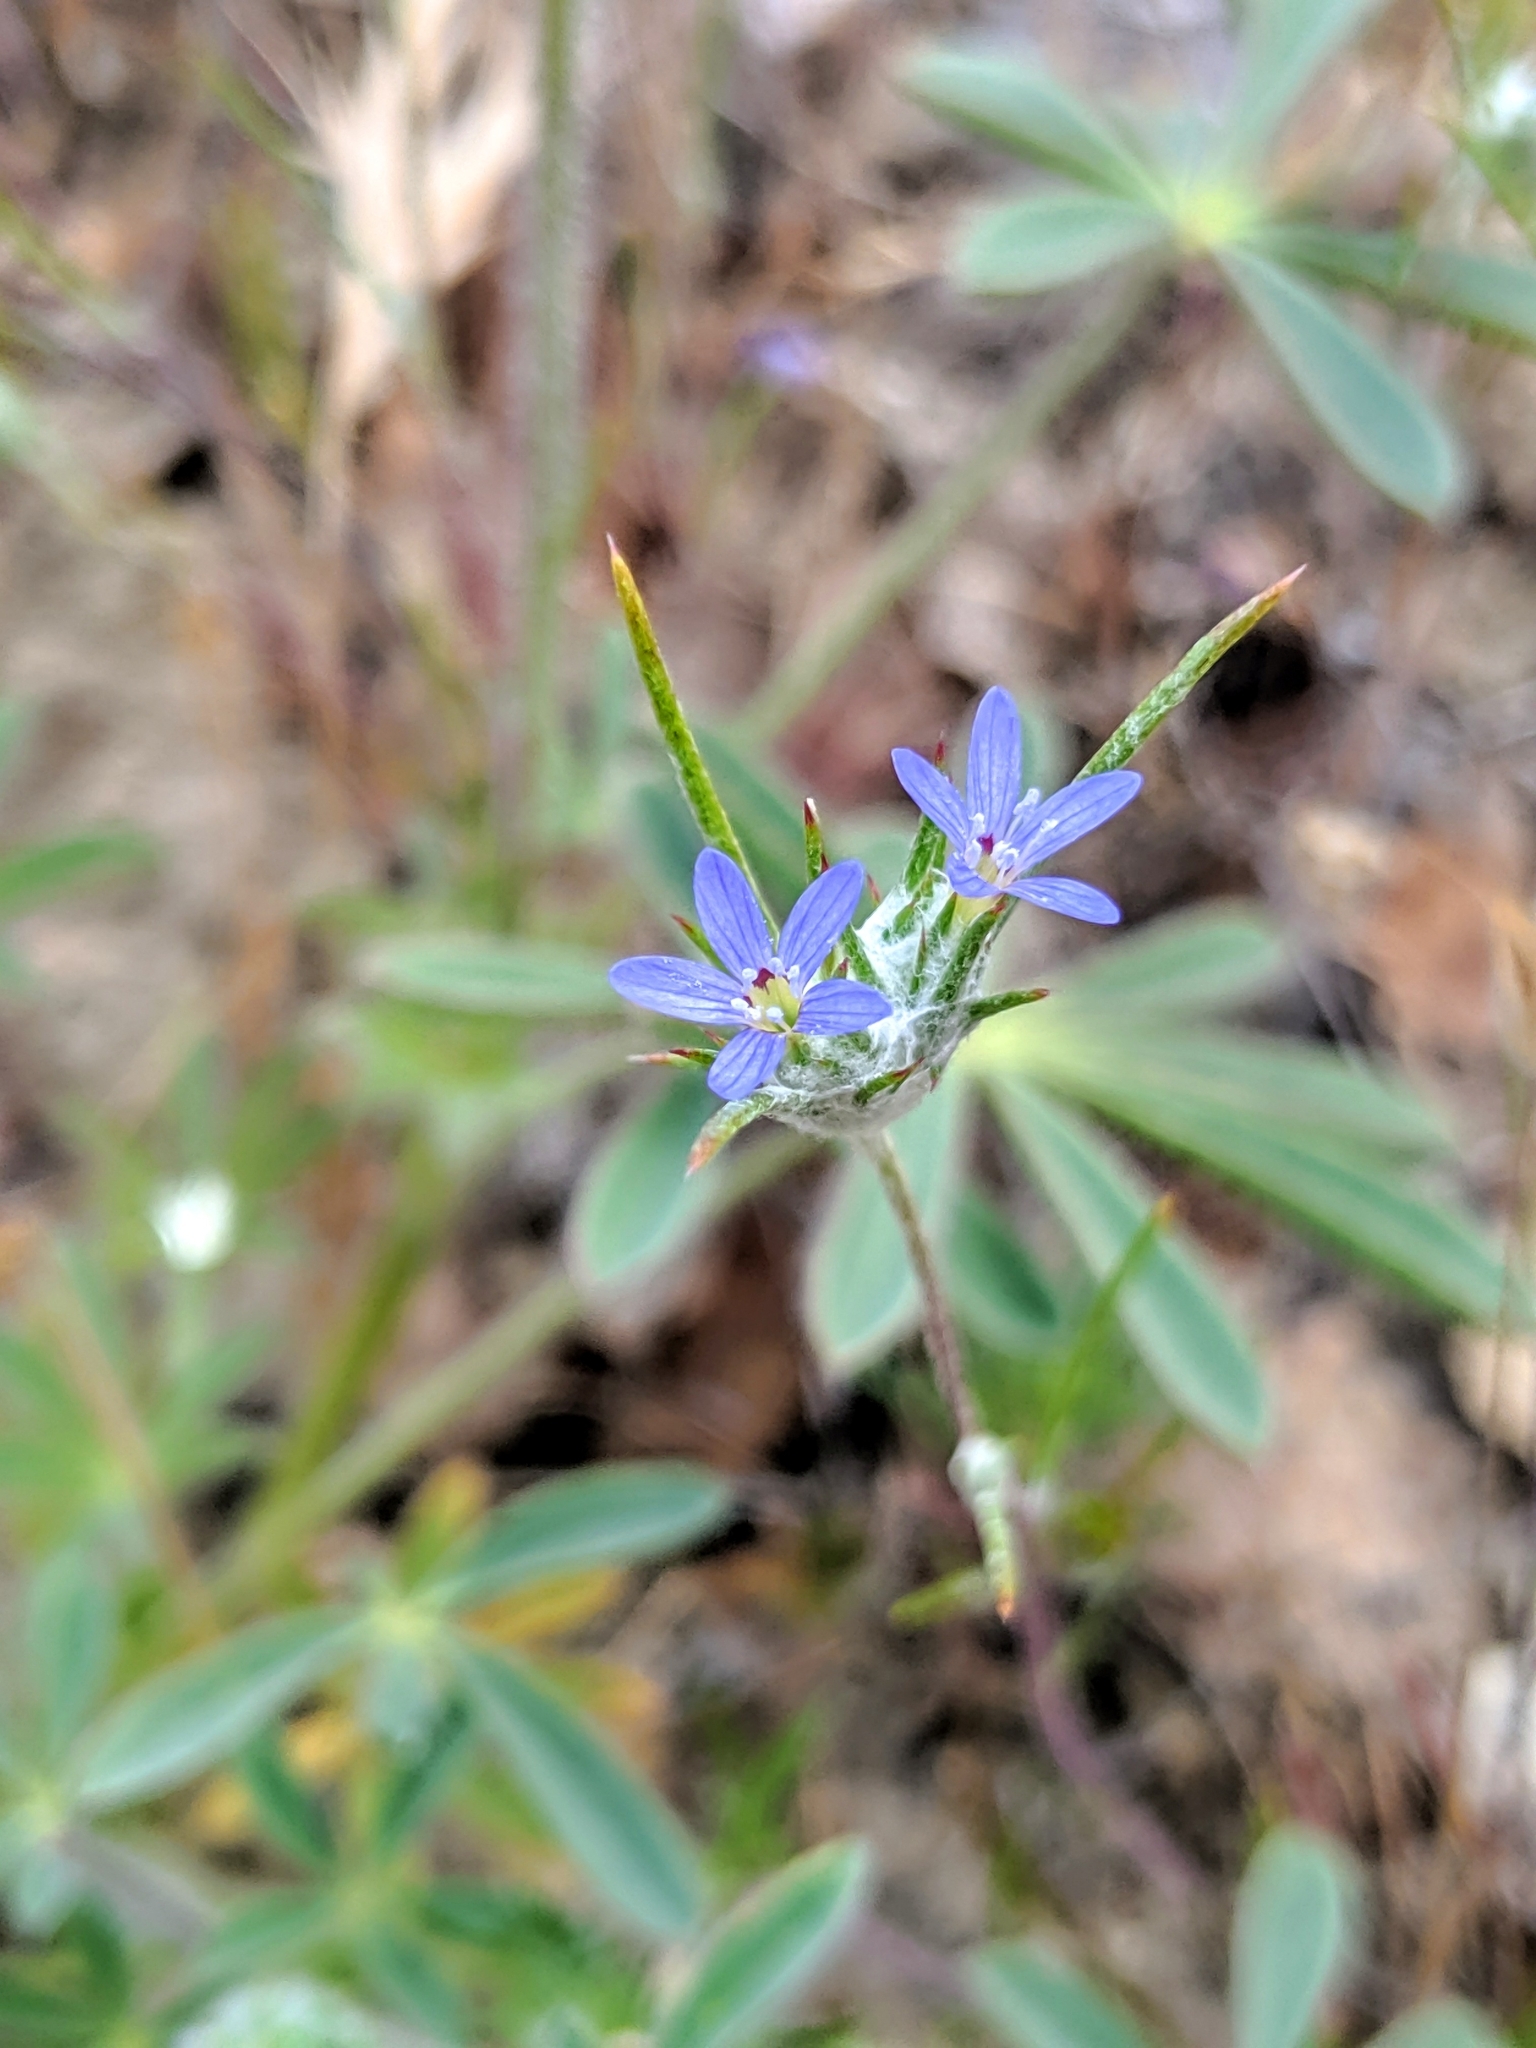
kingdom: Plantae
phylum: Tracheophyta
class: Magnoliopsida
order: Ericales
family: Polemoniaceae
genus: Eriastrum
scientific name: Eriastrum calocyanum
